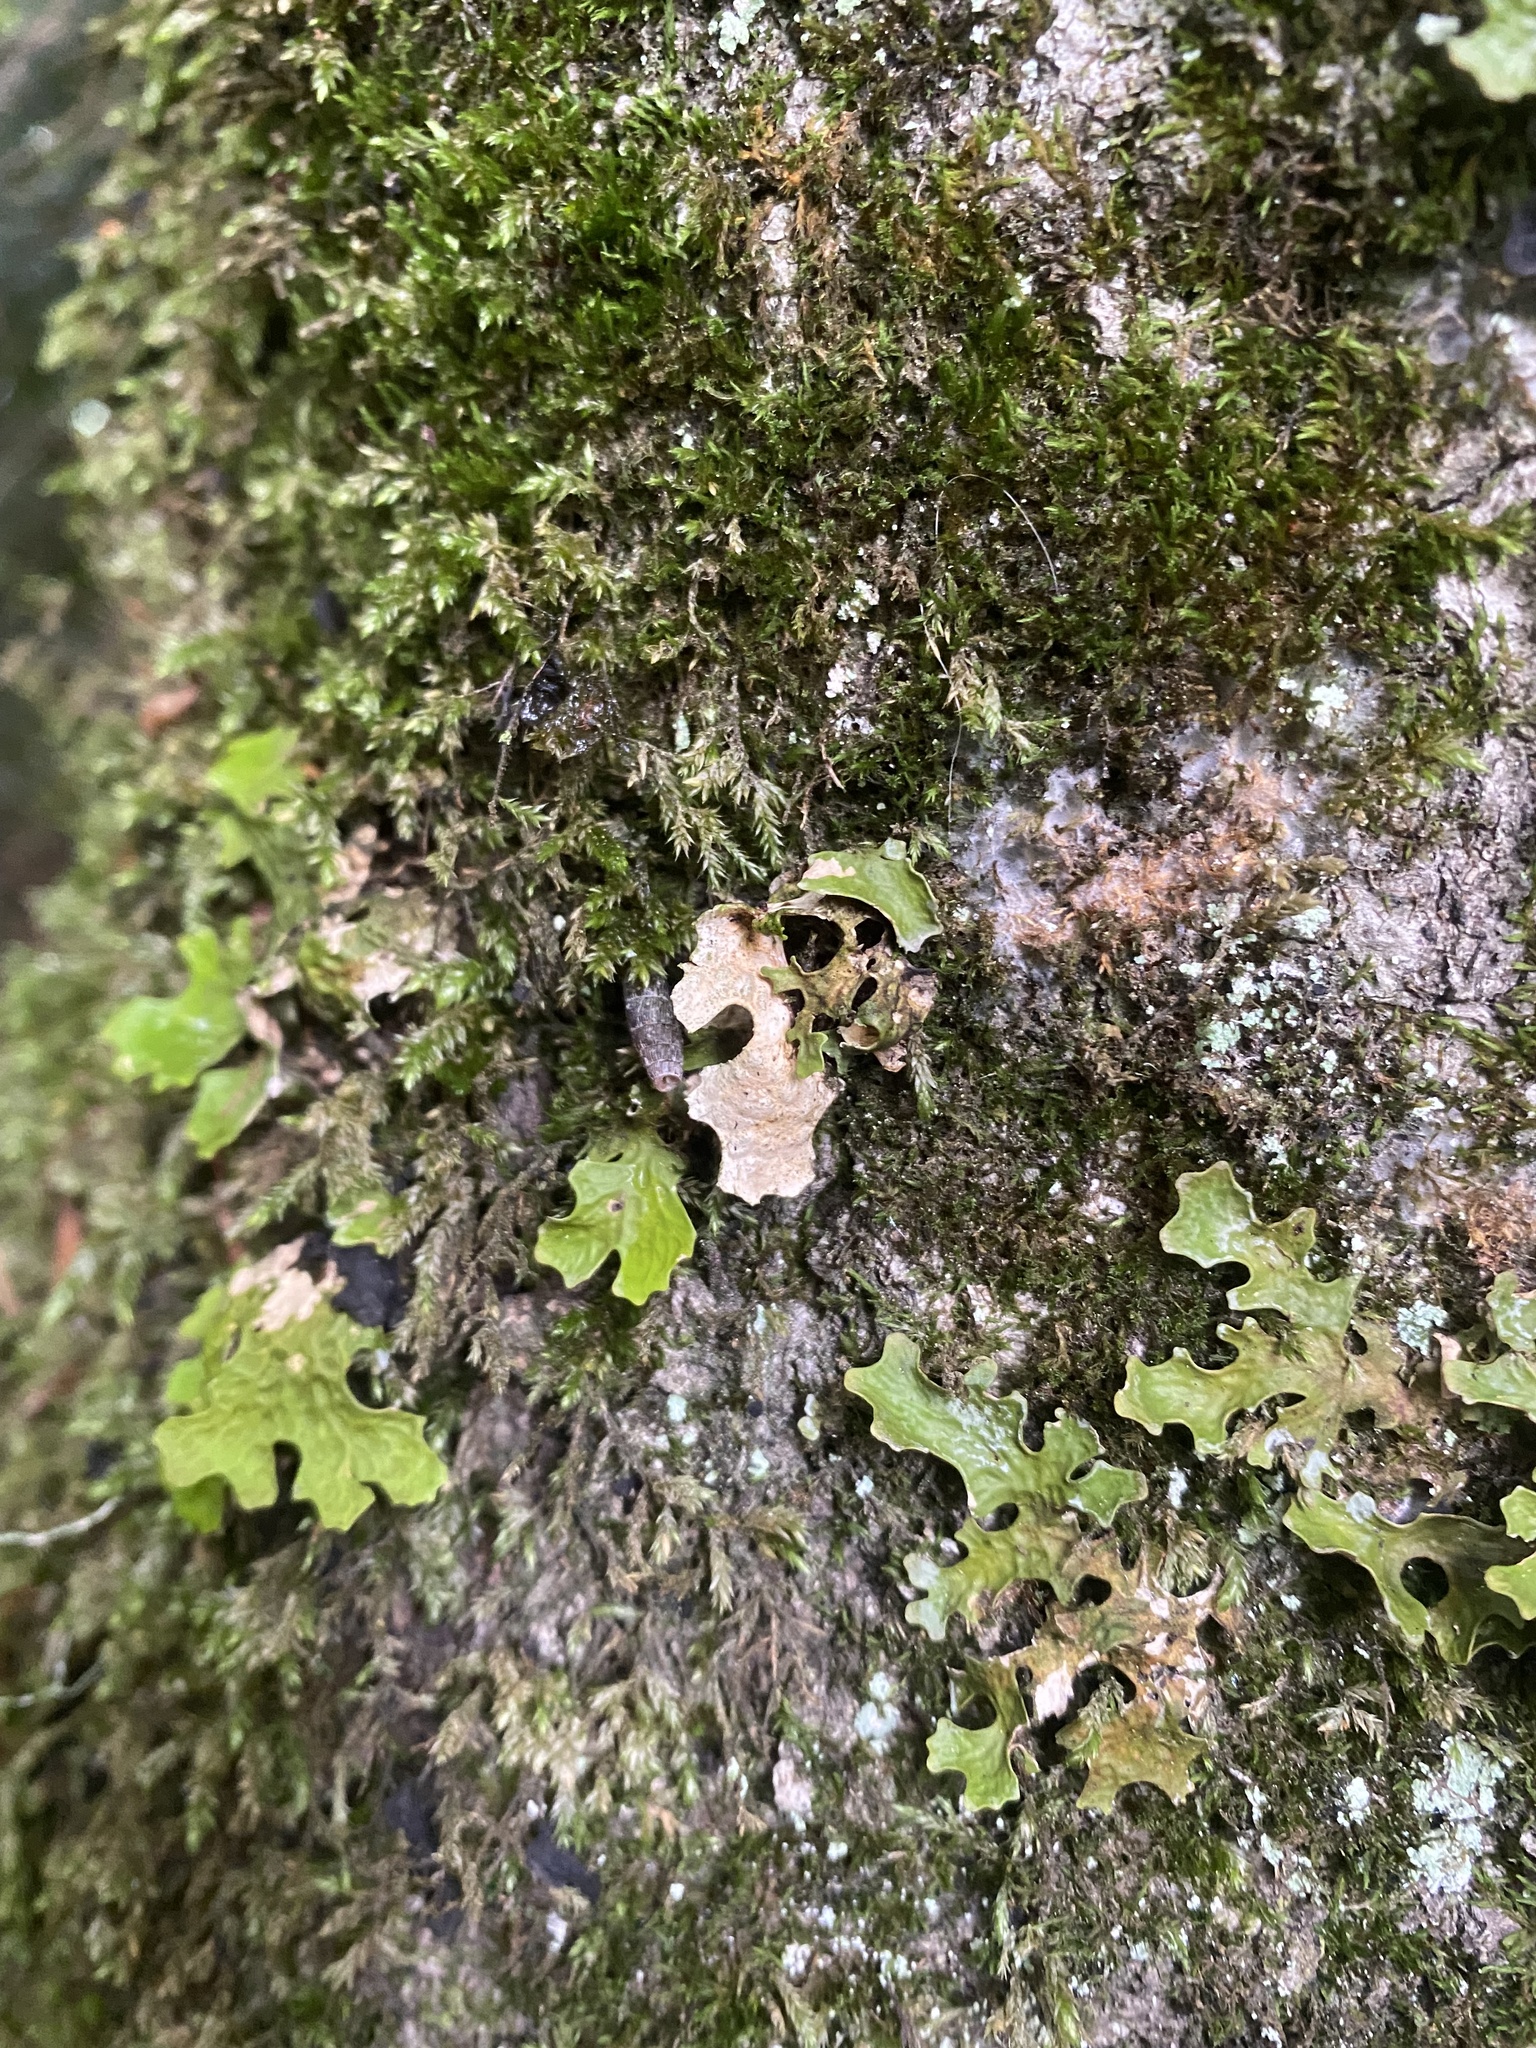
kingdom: Fungi
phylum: Ascomycota
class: Lecanoromycetes
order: Peltigerales
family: Lobariaceae
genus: Lobaria
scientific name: Lobaria pulmonaria
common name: Lungwort
